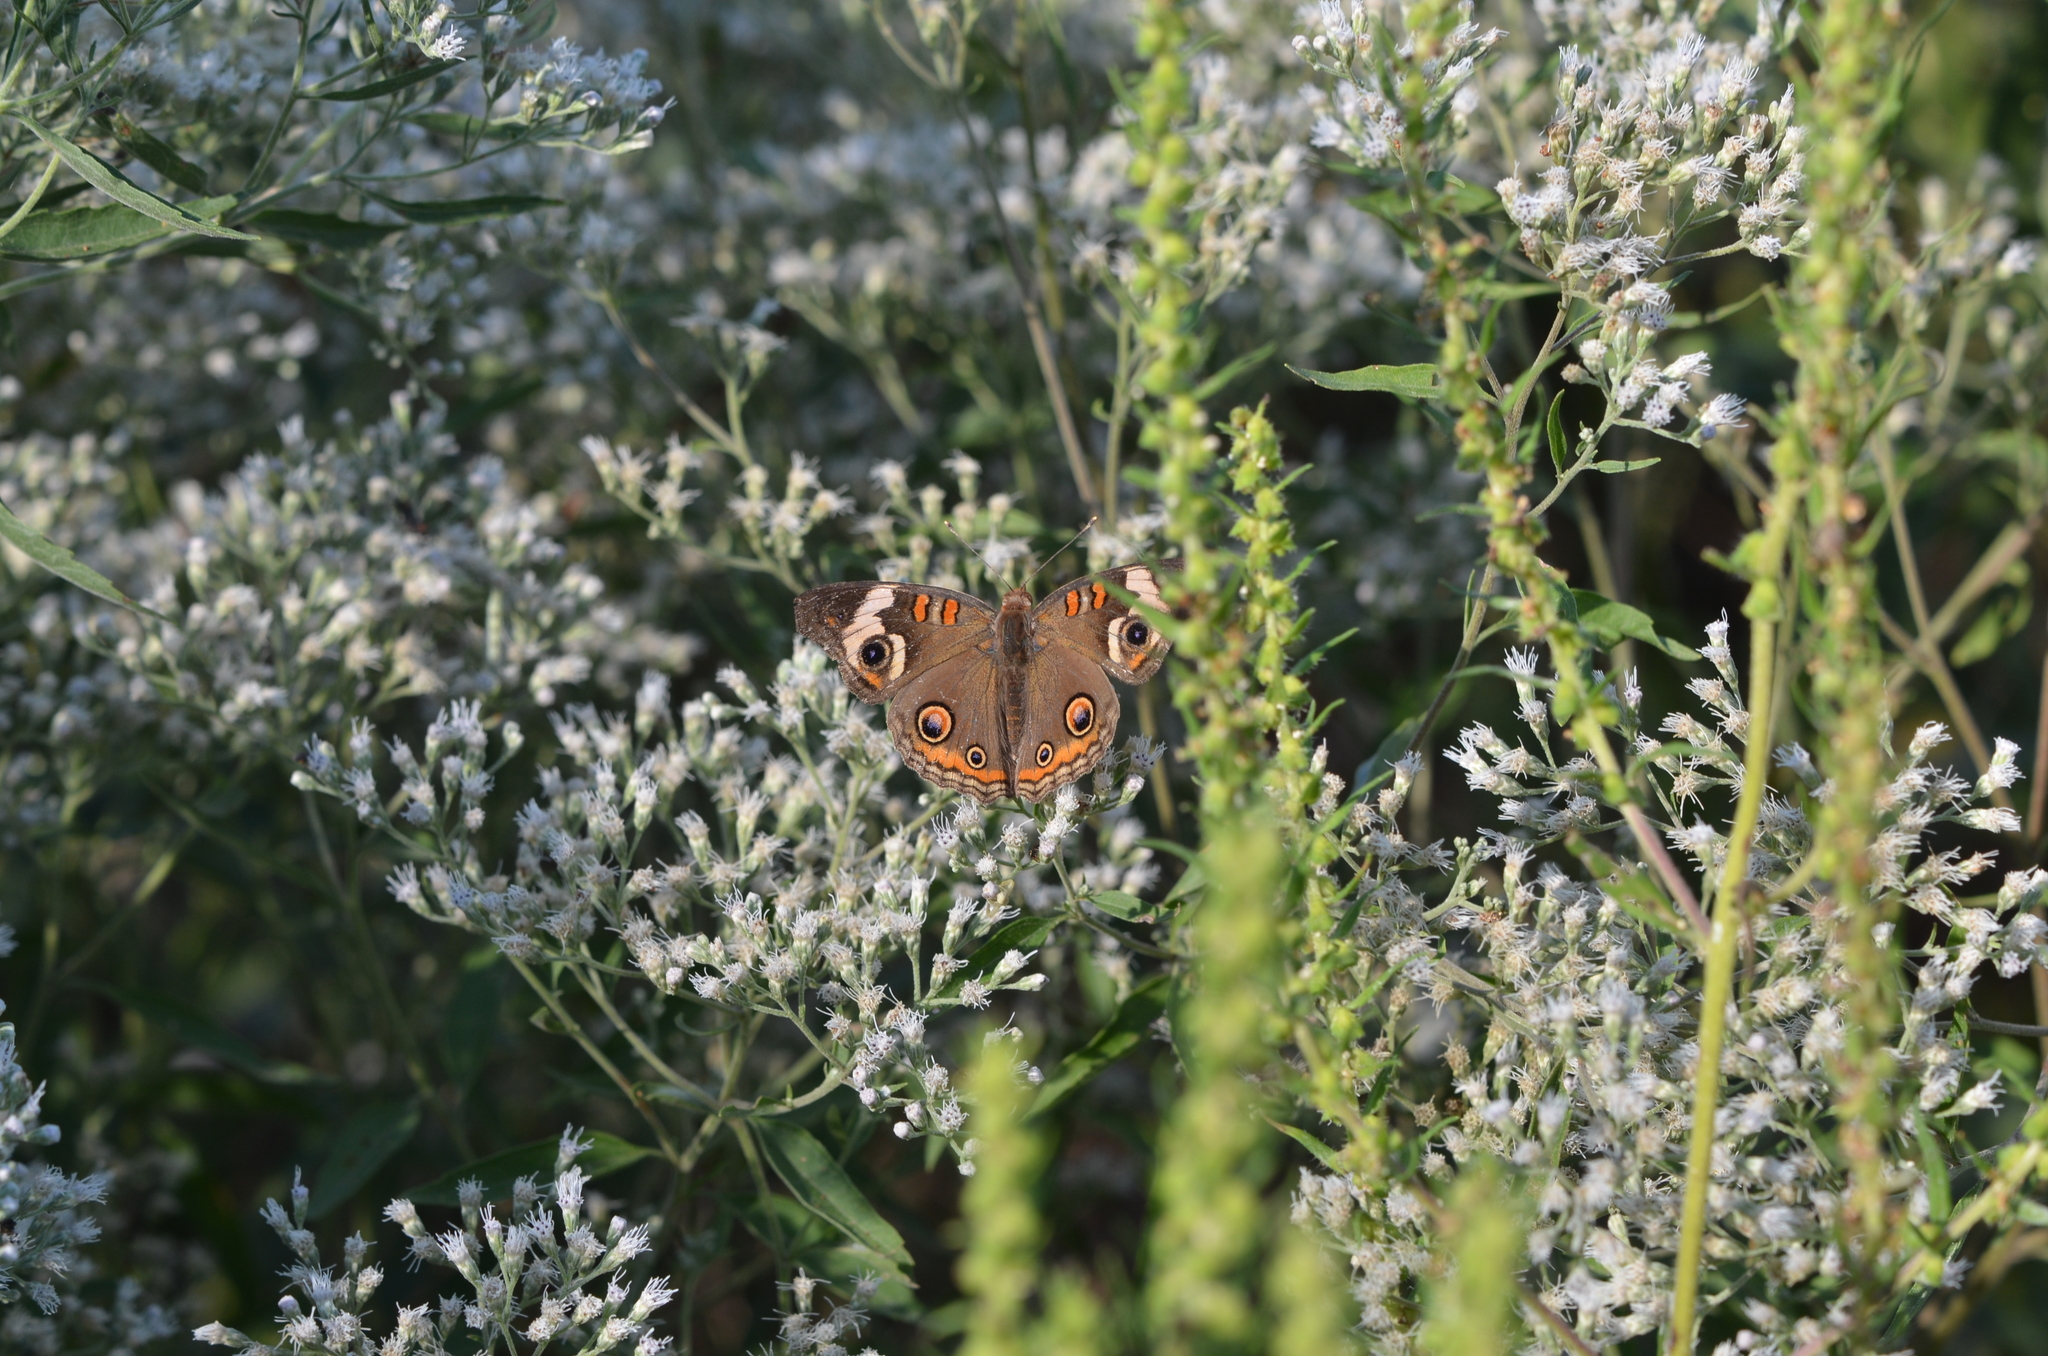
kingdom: Animalia
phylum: Arthropoda
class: Insecta
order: Lepidoptera
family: Nymphalidae
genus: Junonia
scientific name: Junonia coenia
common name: Common buckeye
